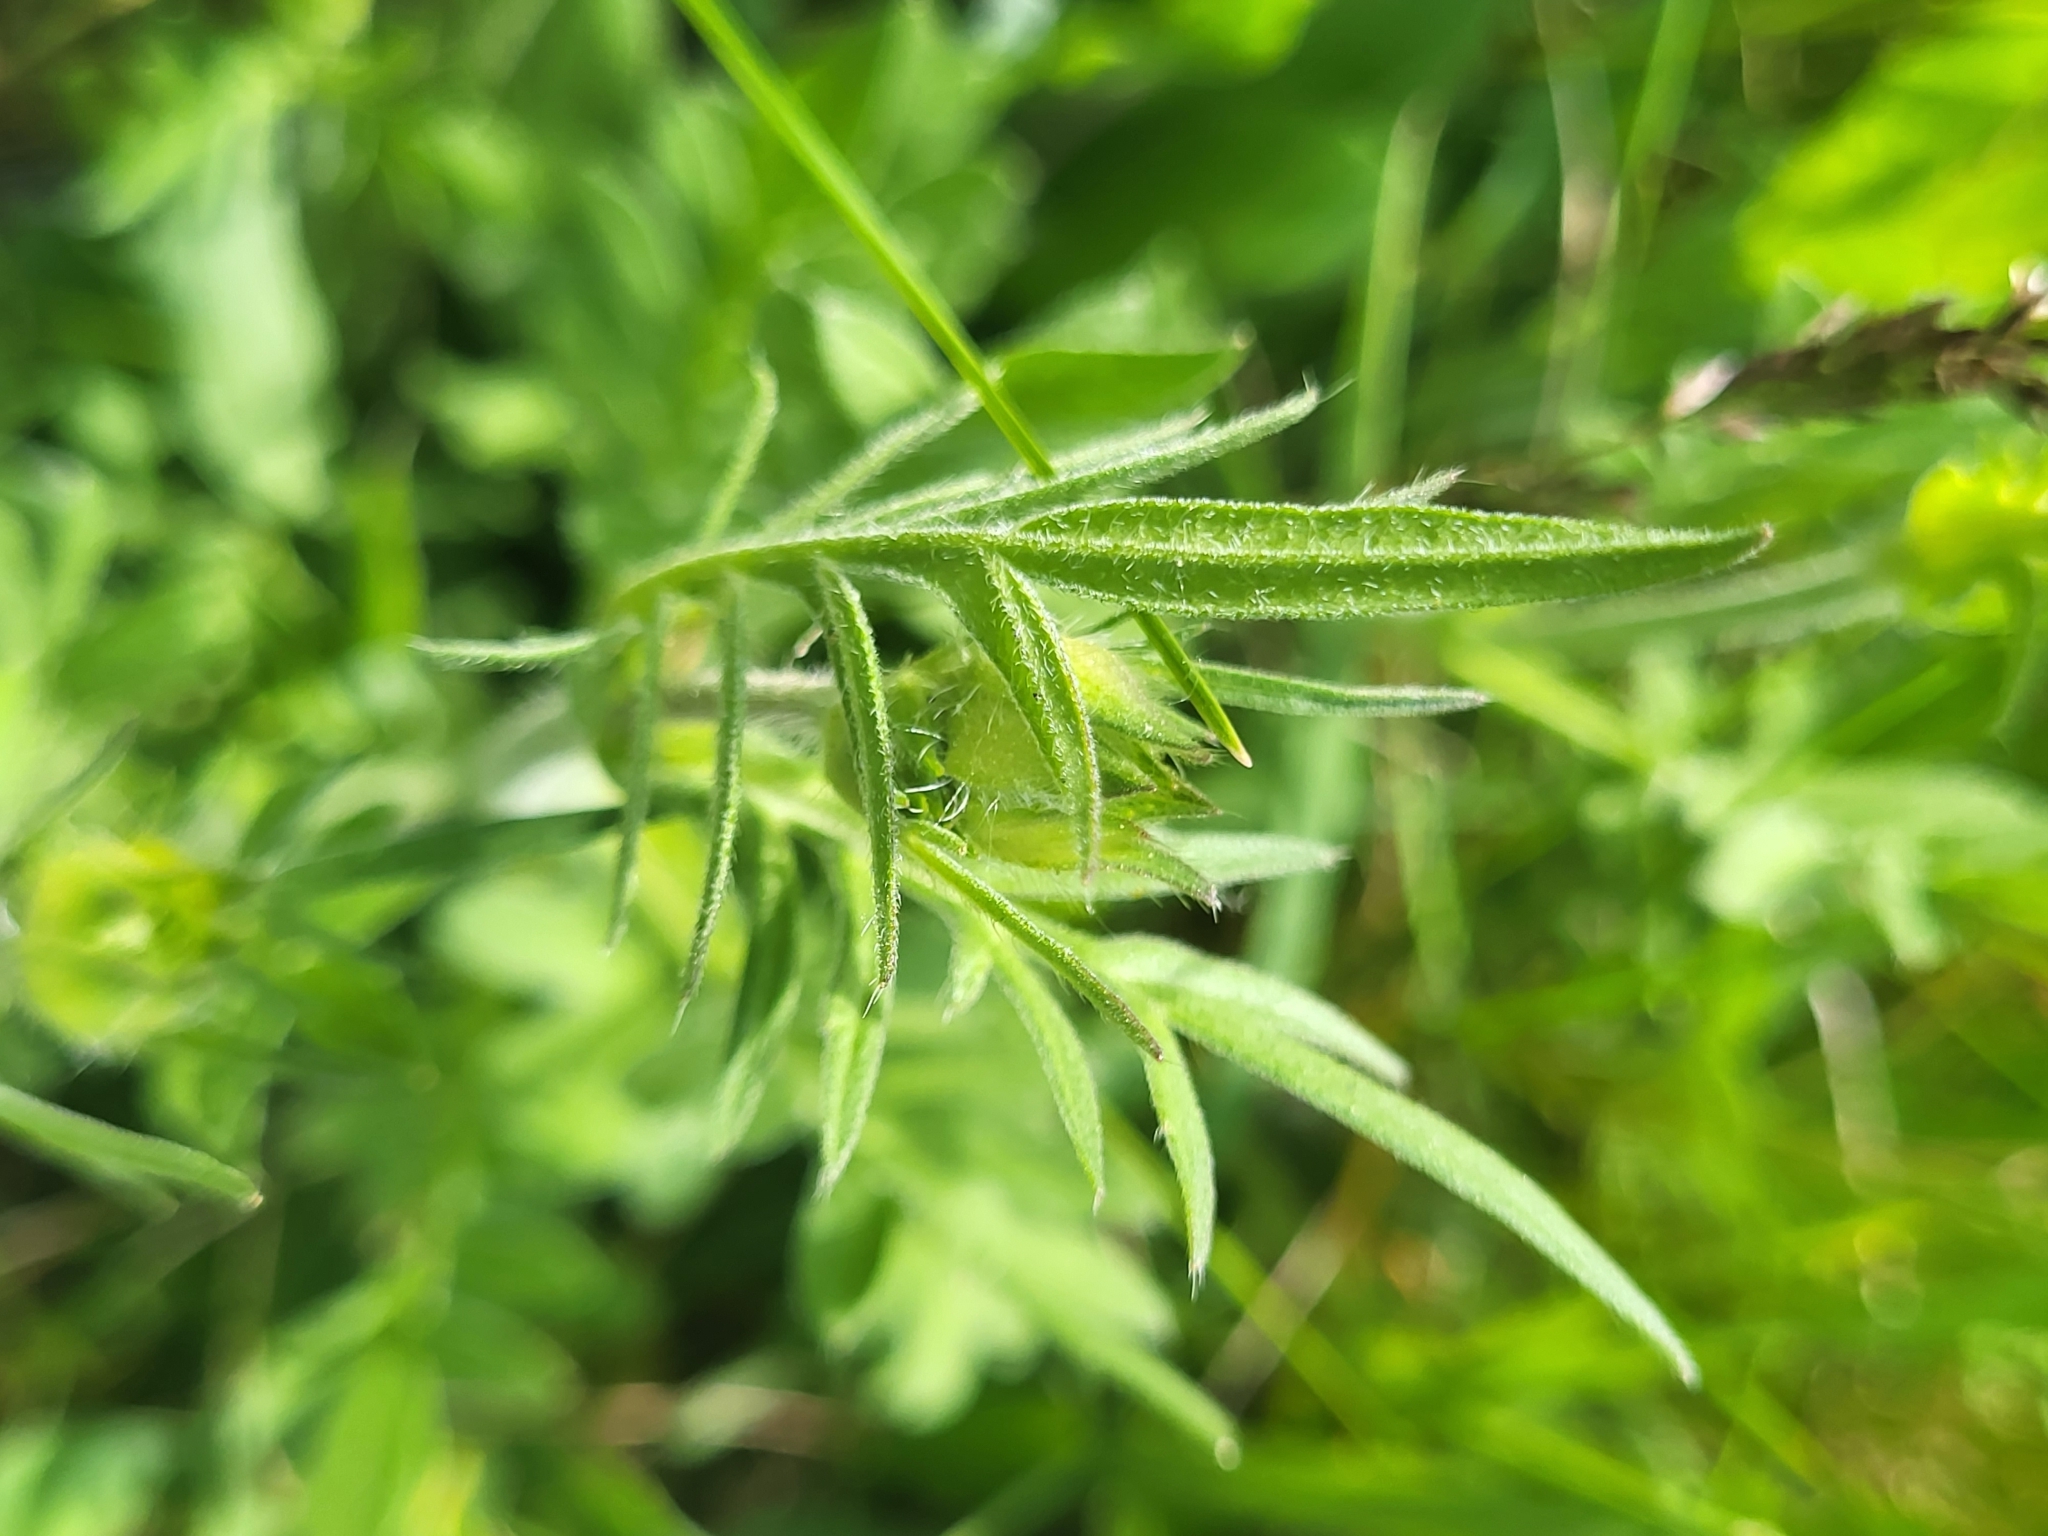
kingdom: Plantae
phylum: Tracheophyta
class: Magnoliopsida
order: Dipsacales
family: Caprifoliaceae
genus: Knautia
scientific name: Knautia arvensis
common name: Field scabiosa
